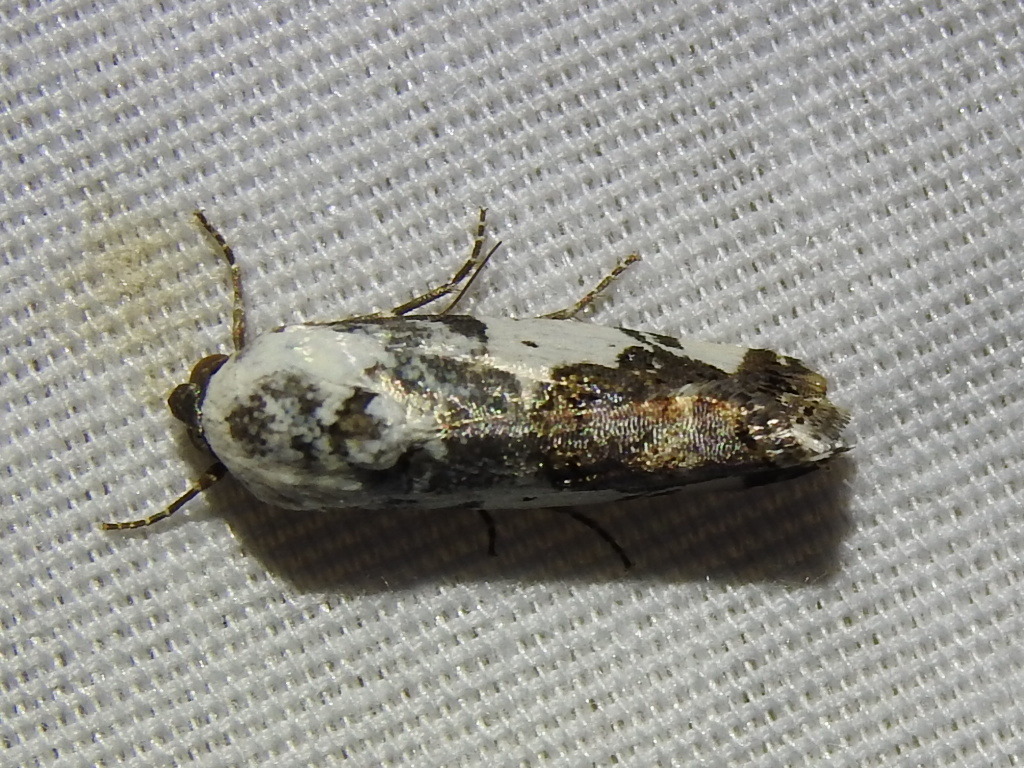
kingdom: Animalia
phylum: Arthropoda
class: Insecta
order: Lepidoptera
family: Noctuidae
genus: Acontia
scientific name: Acontia aprica
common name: Nun
